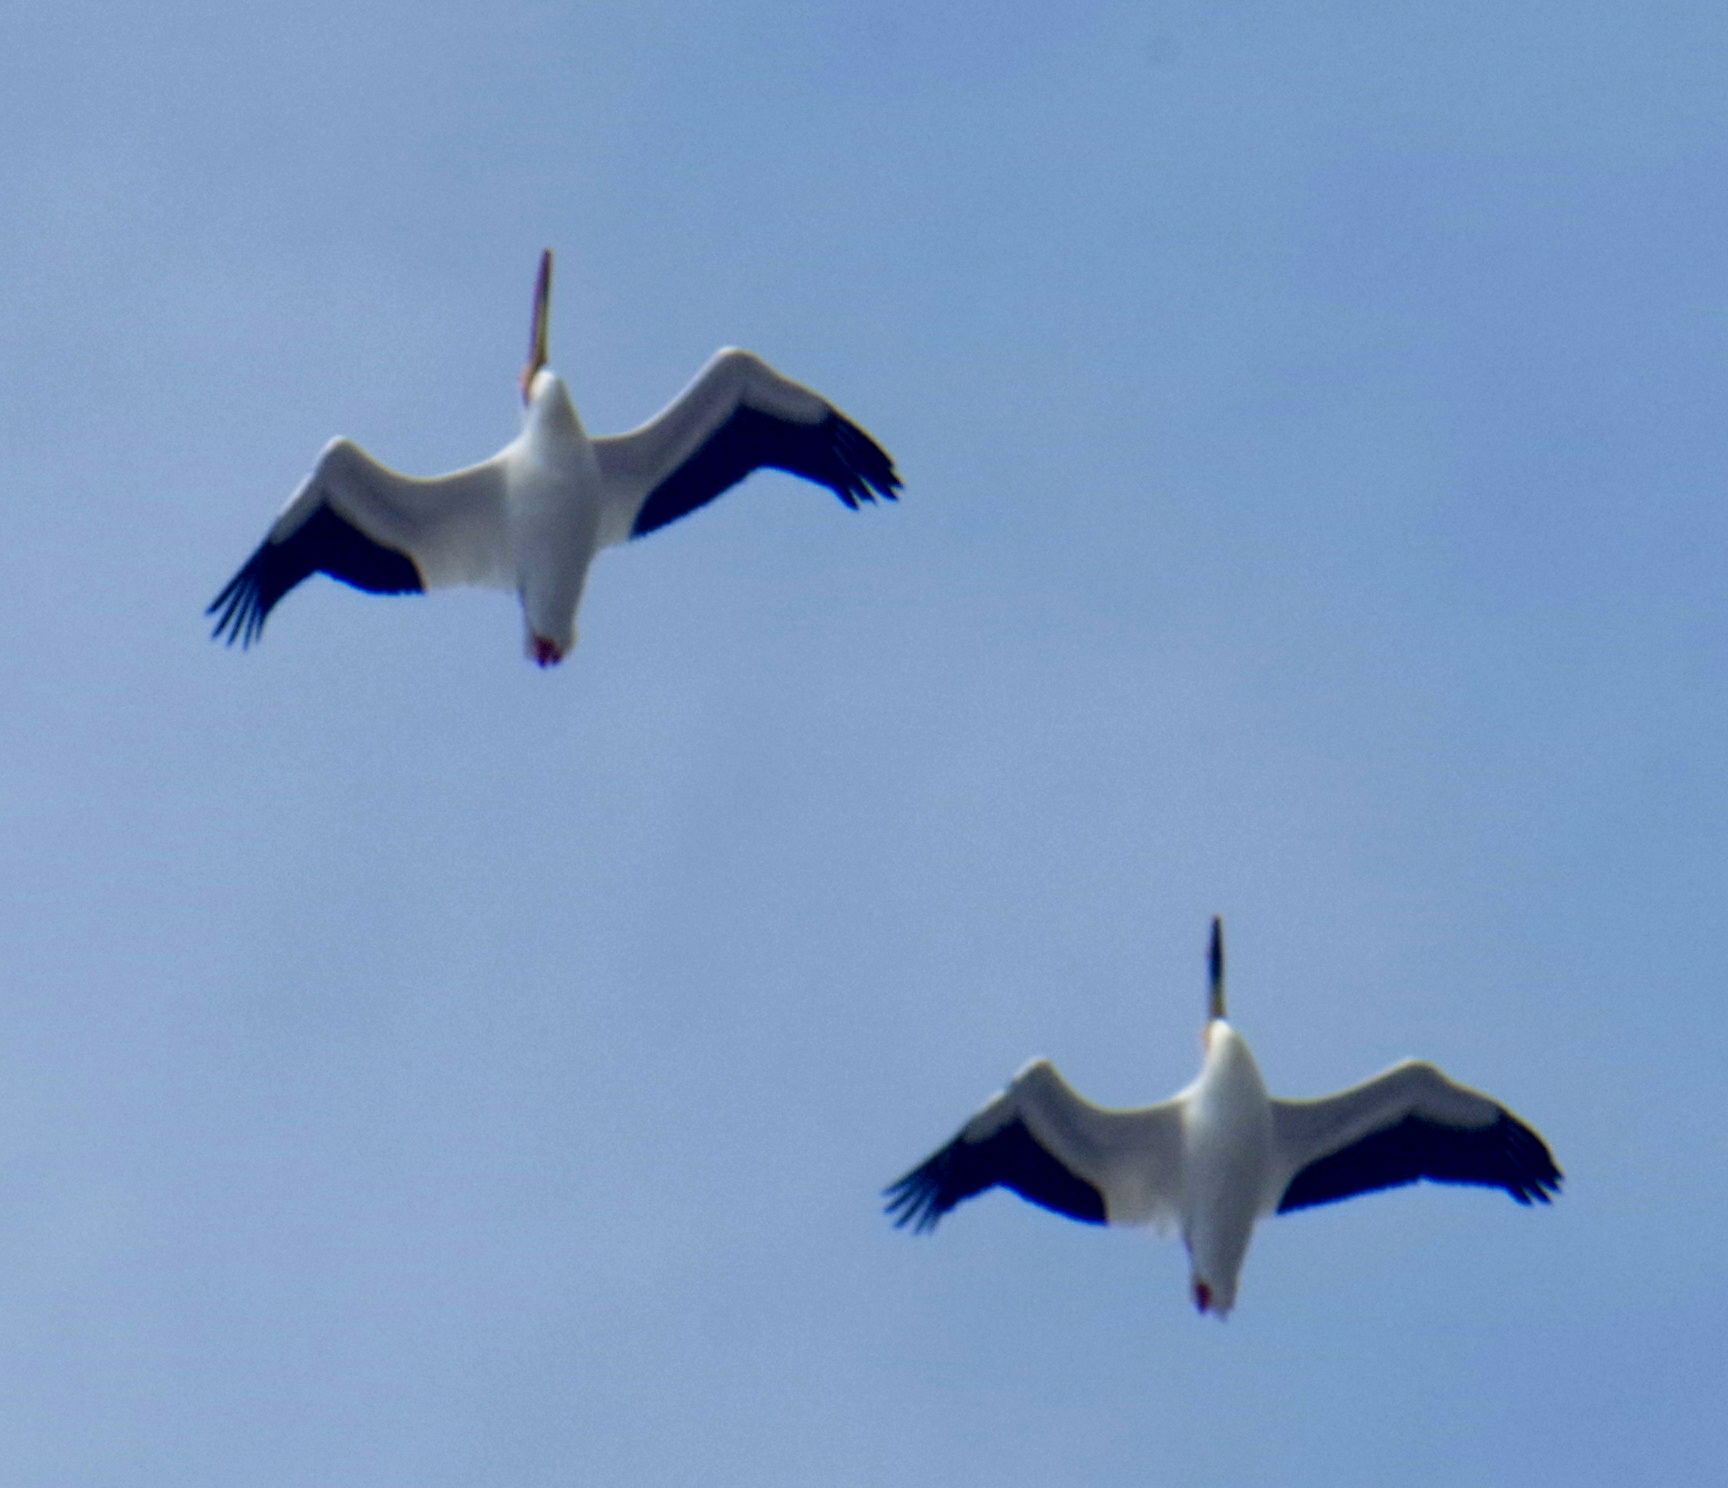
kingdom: Animalia
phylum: Chordata
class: Aves
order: Pelecaniformes
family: Pelecanidae
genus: Pelecanus
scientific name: Pelecanus erythrorhynchos
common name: American white pelican
